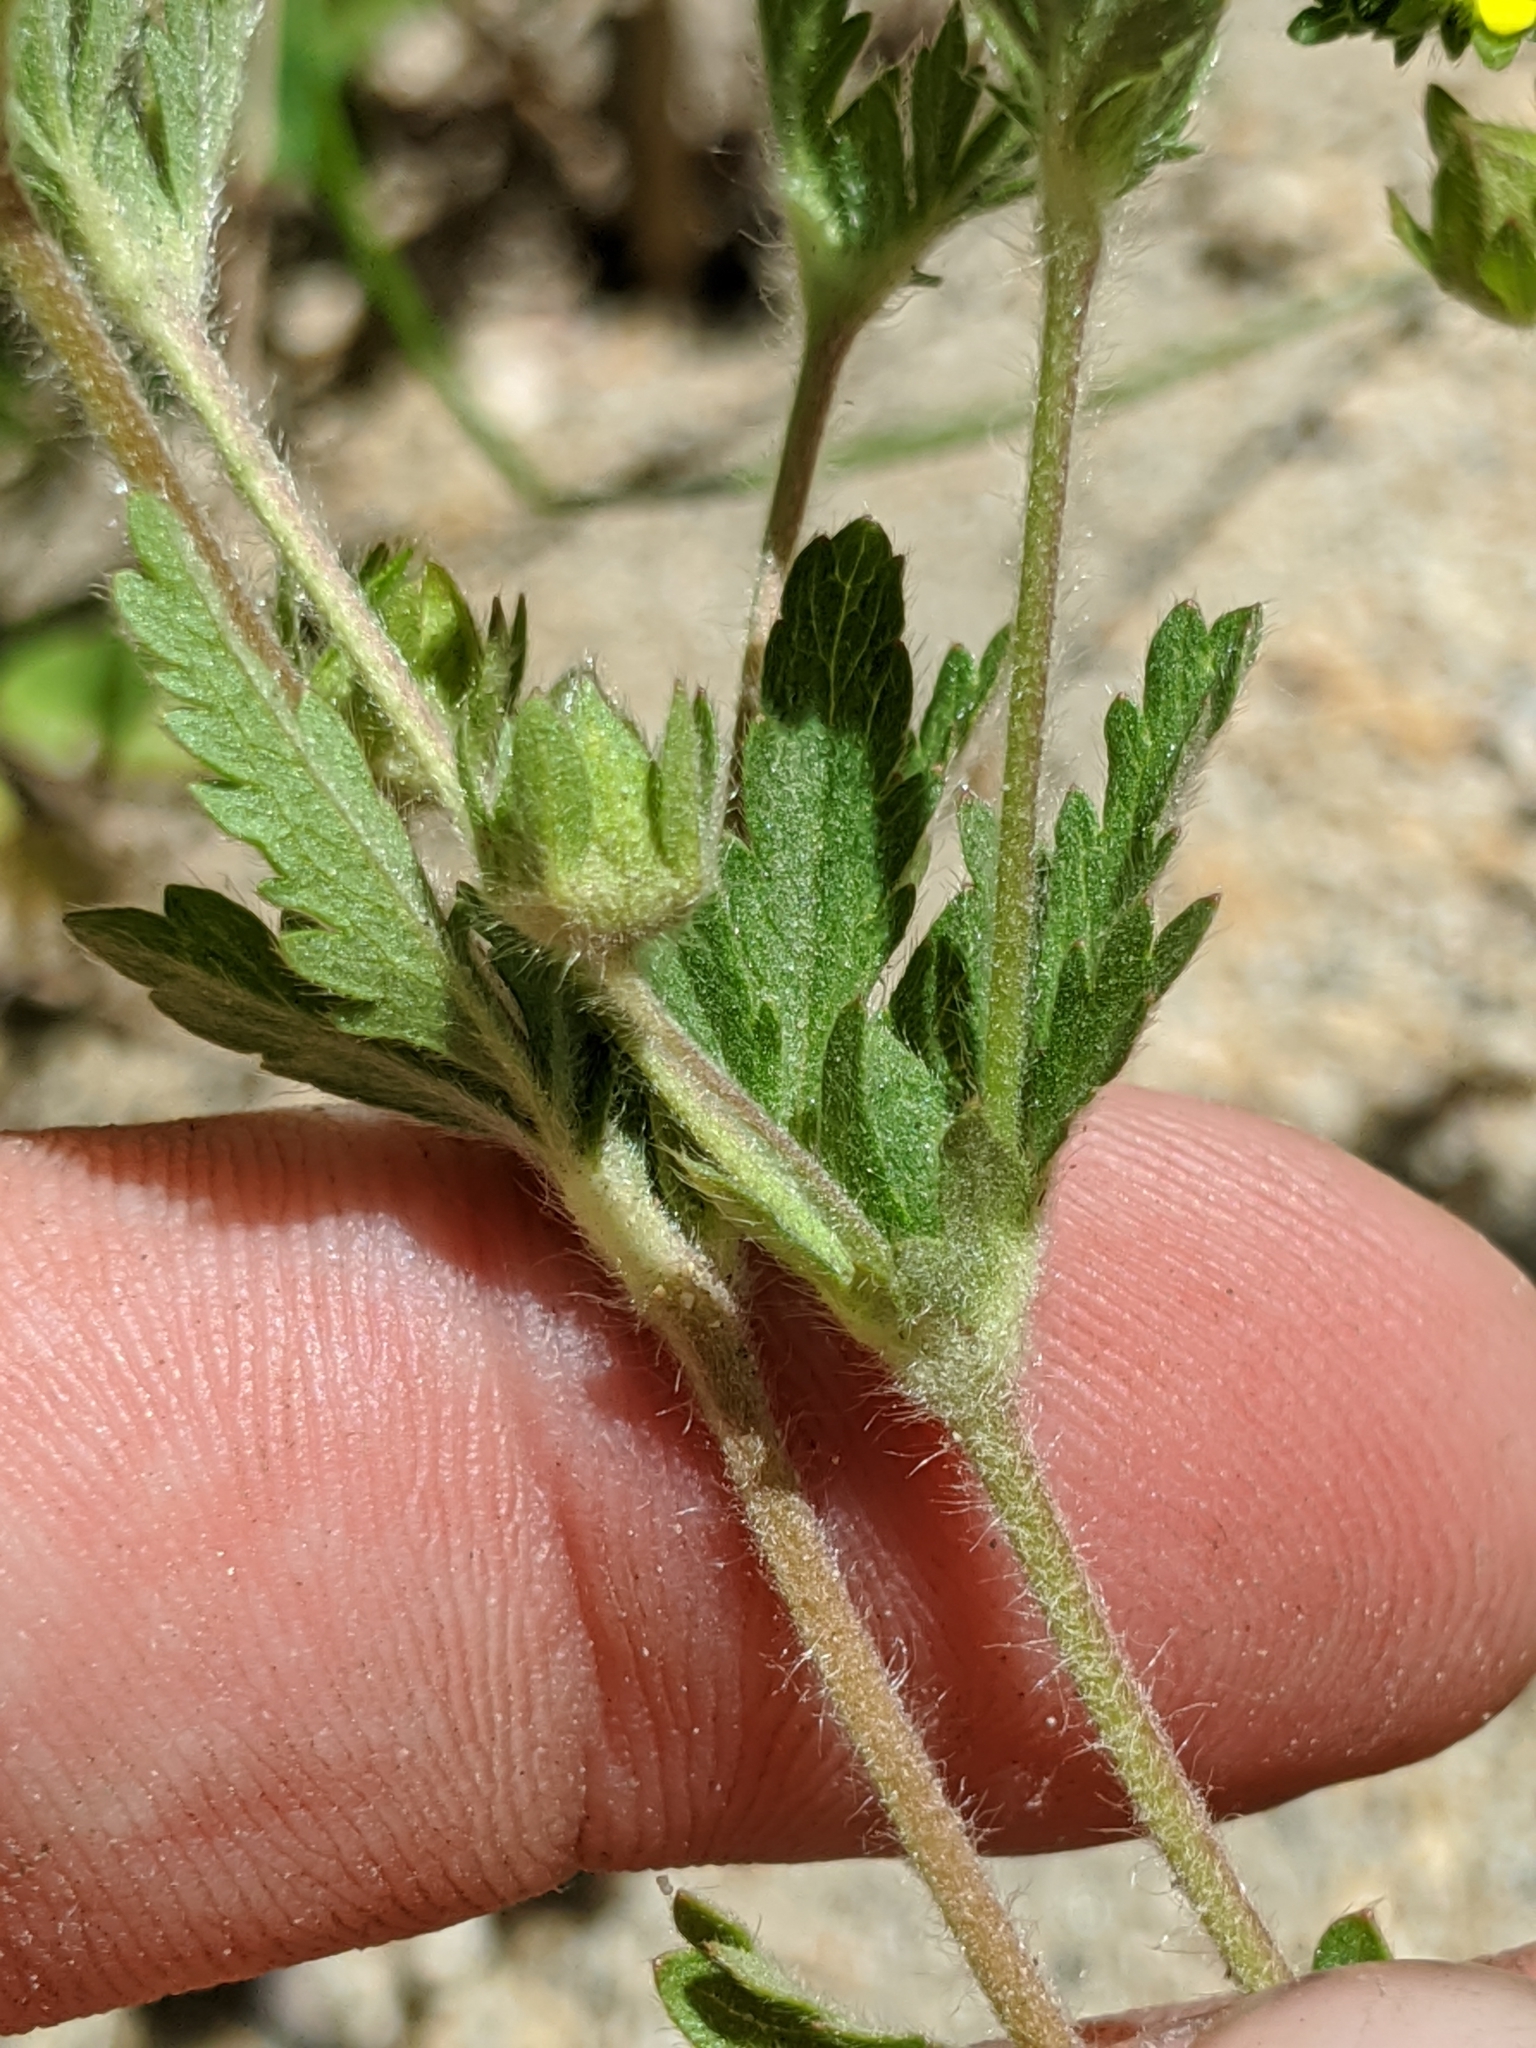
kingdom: Plantae
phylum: Tracheophyta
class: Magnoliopsida
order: Rosales
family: Rosaceae
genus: Potentilla
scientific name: Potentilla biennis
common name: Greene's cinquefoil
